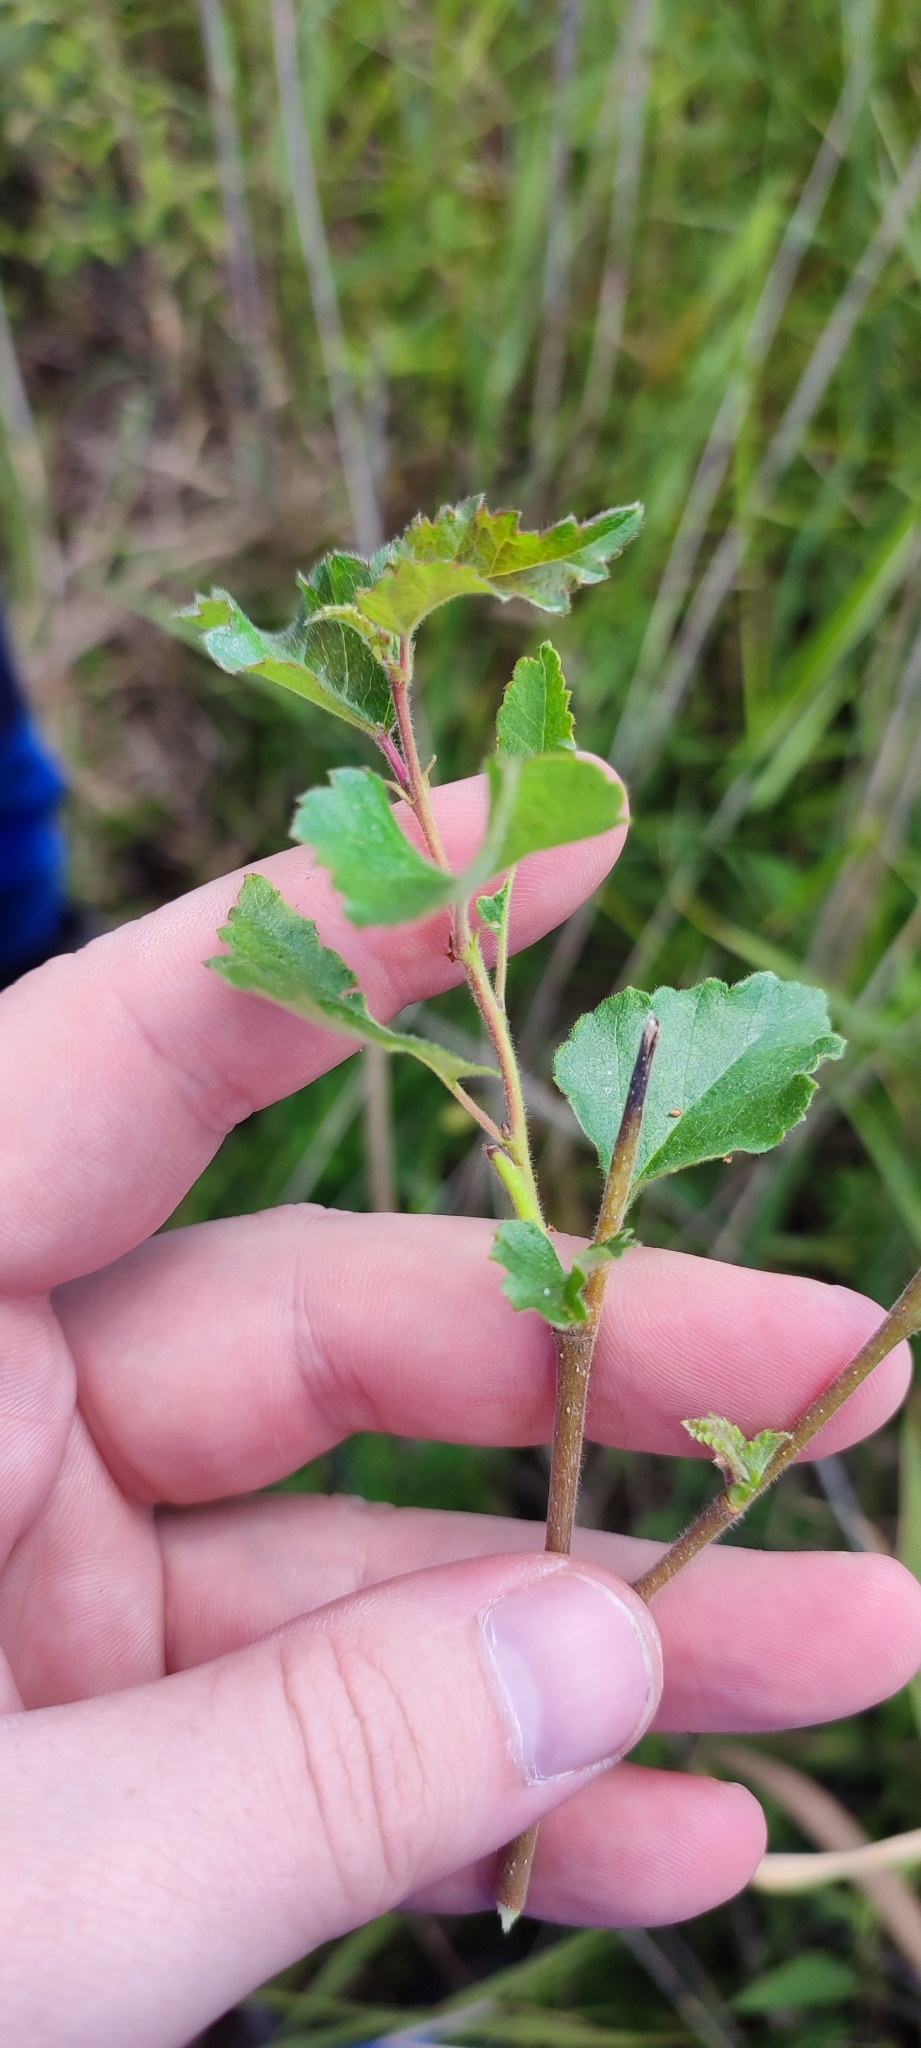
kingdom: Plantae
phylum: Tracheophyta
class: Magnoliopsida
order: Fagales
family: Betulaceae
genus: Betula
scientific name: Betula pubescens
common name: Downy birch
